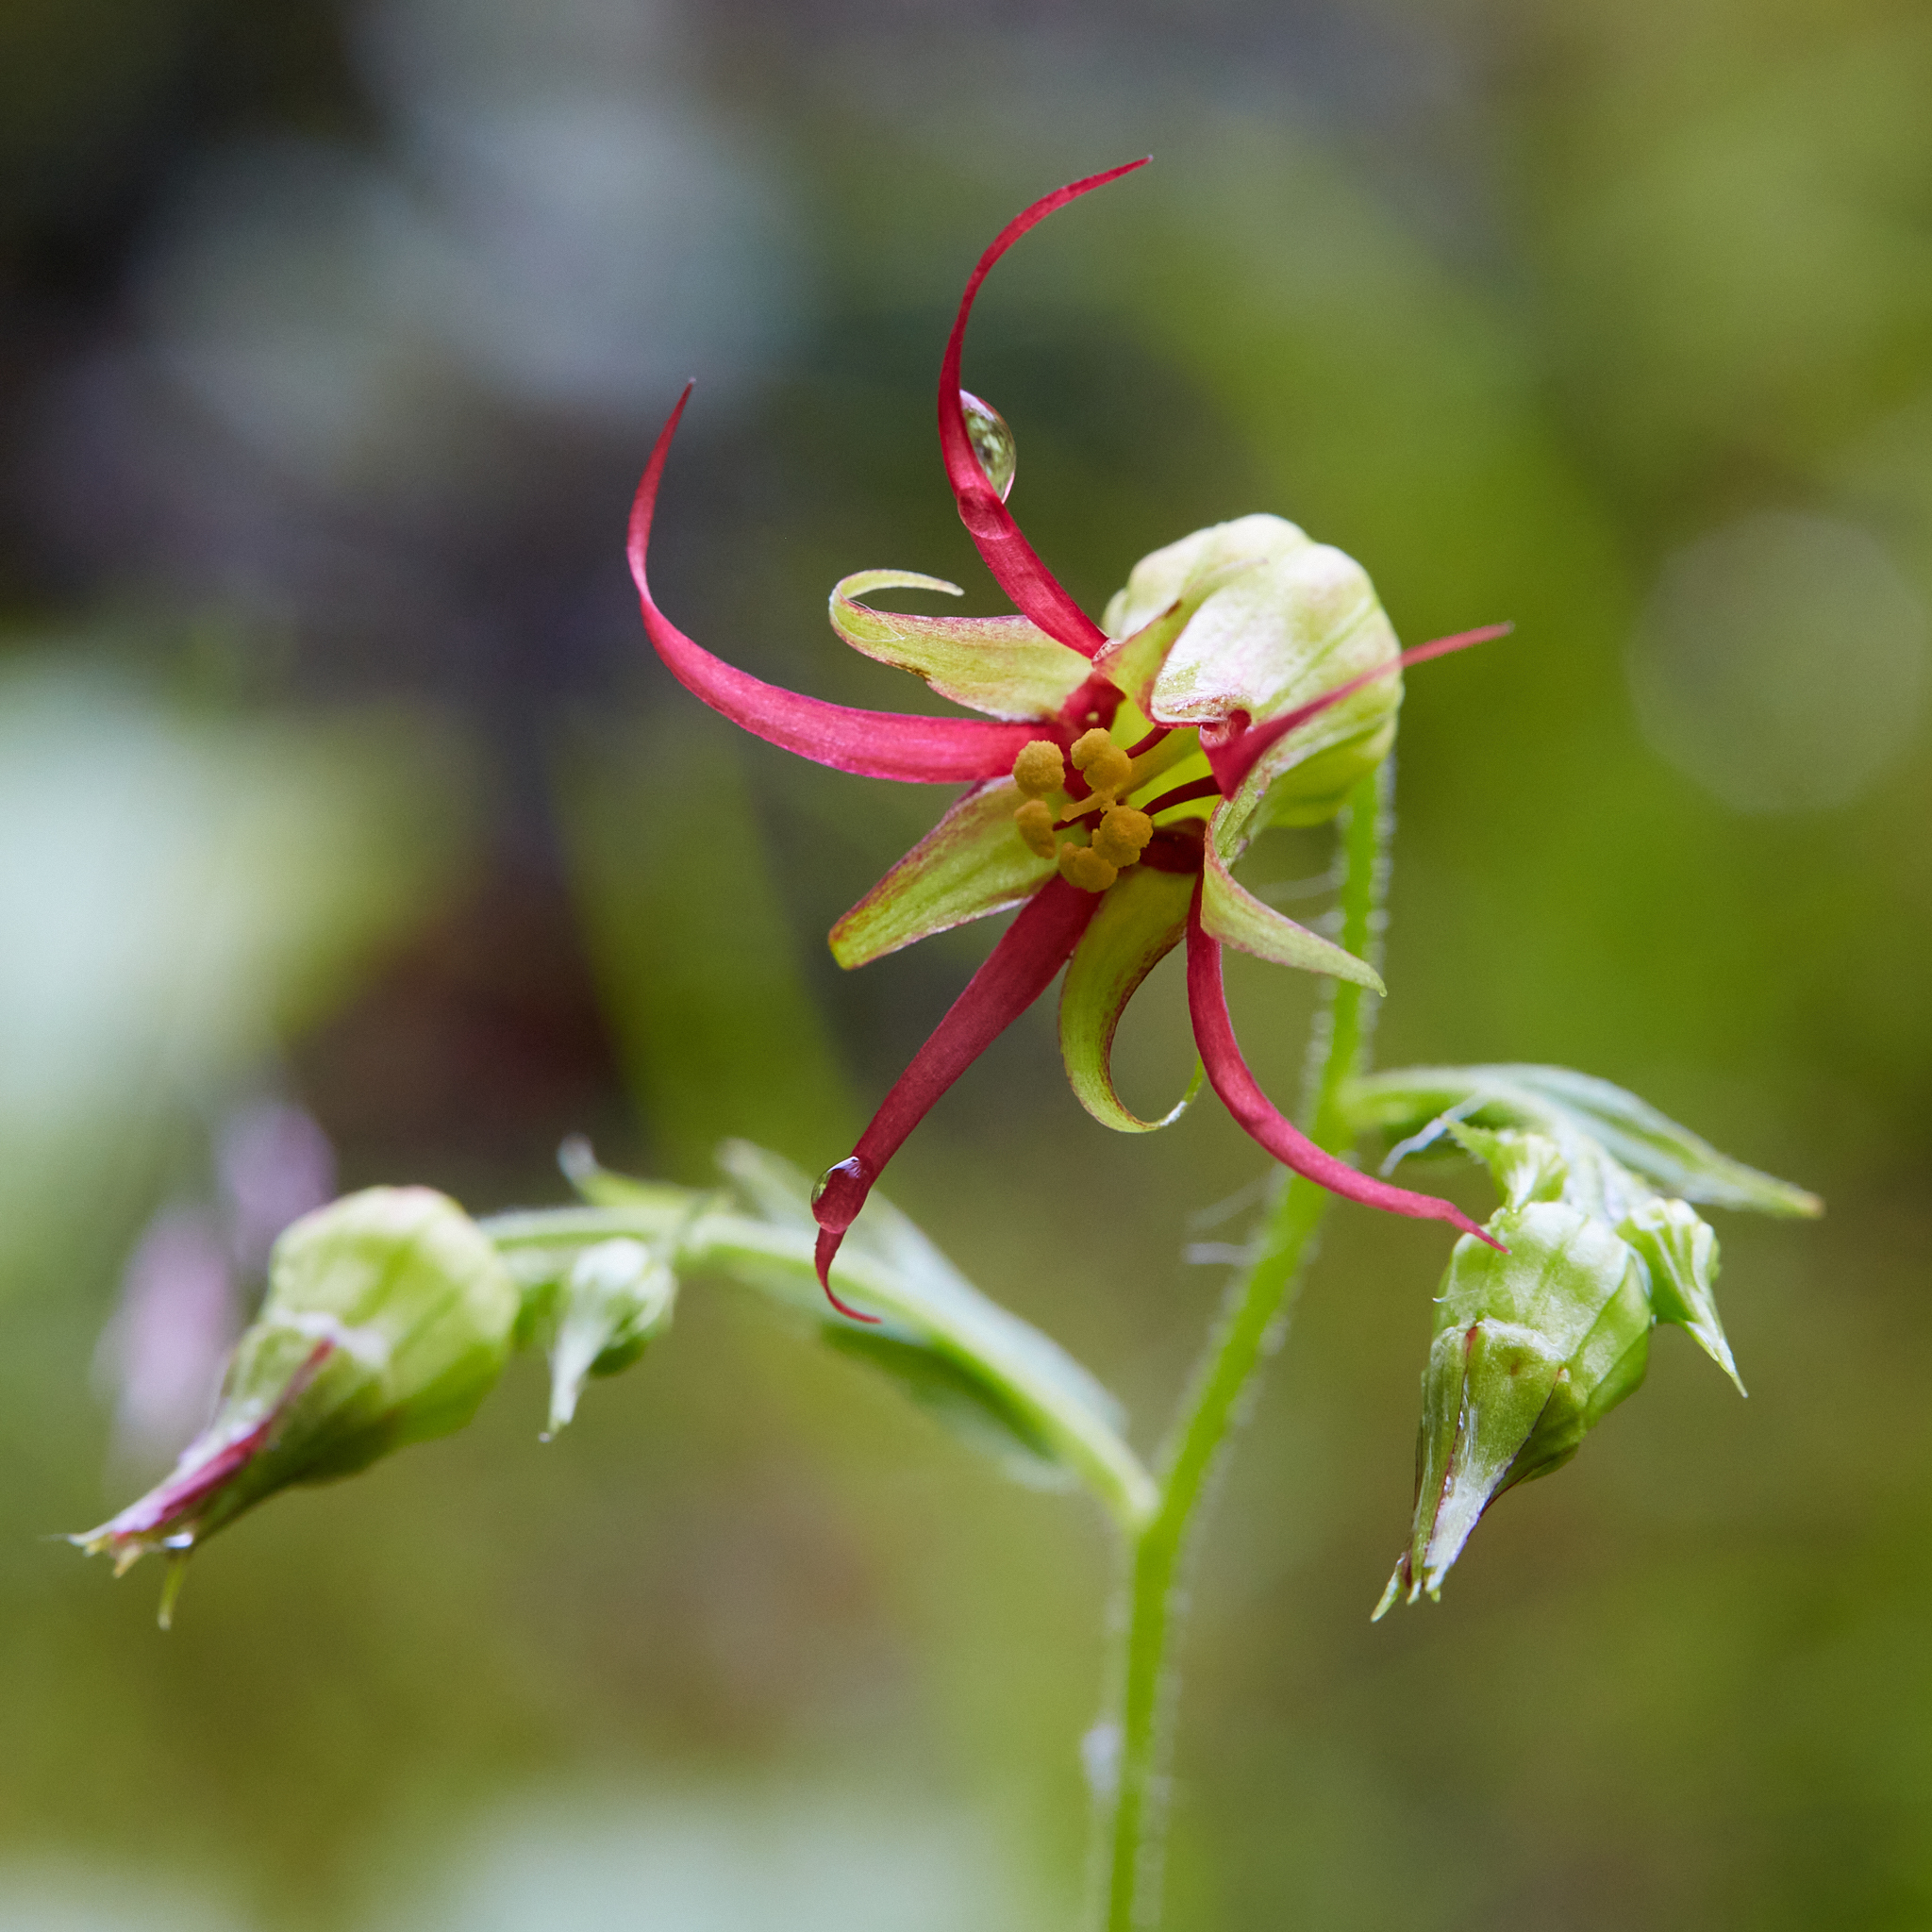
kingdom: Plantae
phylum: Tracheophyta
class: Magnoliopsida
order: Saxifragales
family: Saxifragaceae
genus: Bolandra
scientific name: Bolandra oregana
